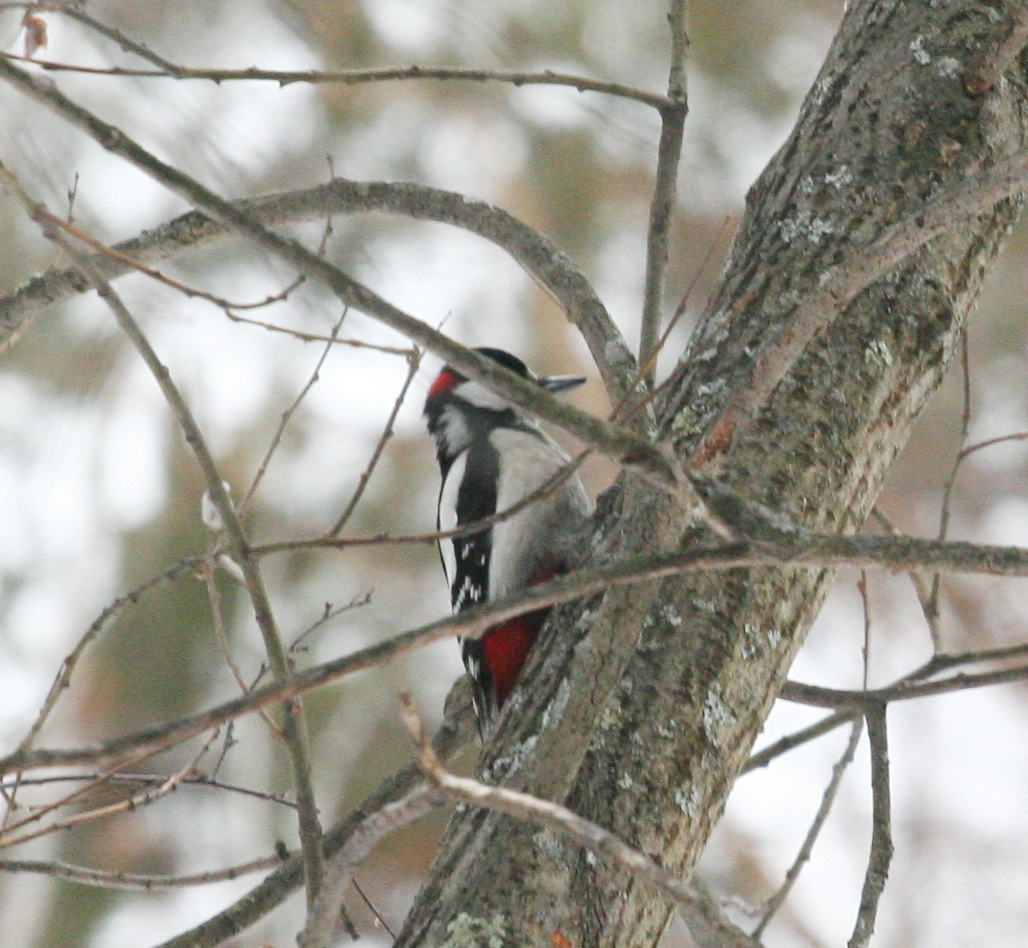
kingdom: Animalia
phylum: Chordata
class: Aves
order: Piciformes
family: Picidae
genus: Dendrocopos
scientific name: Dendrocopos major
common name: Great spotted woodpecker
